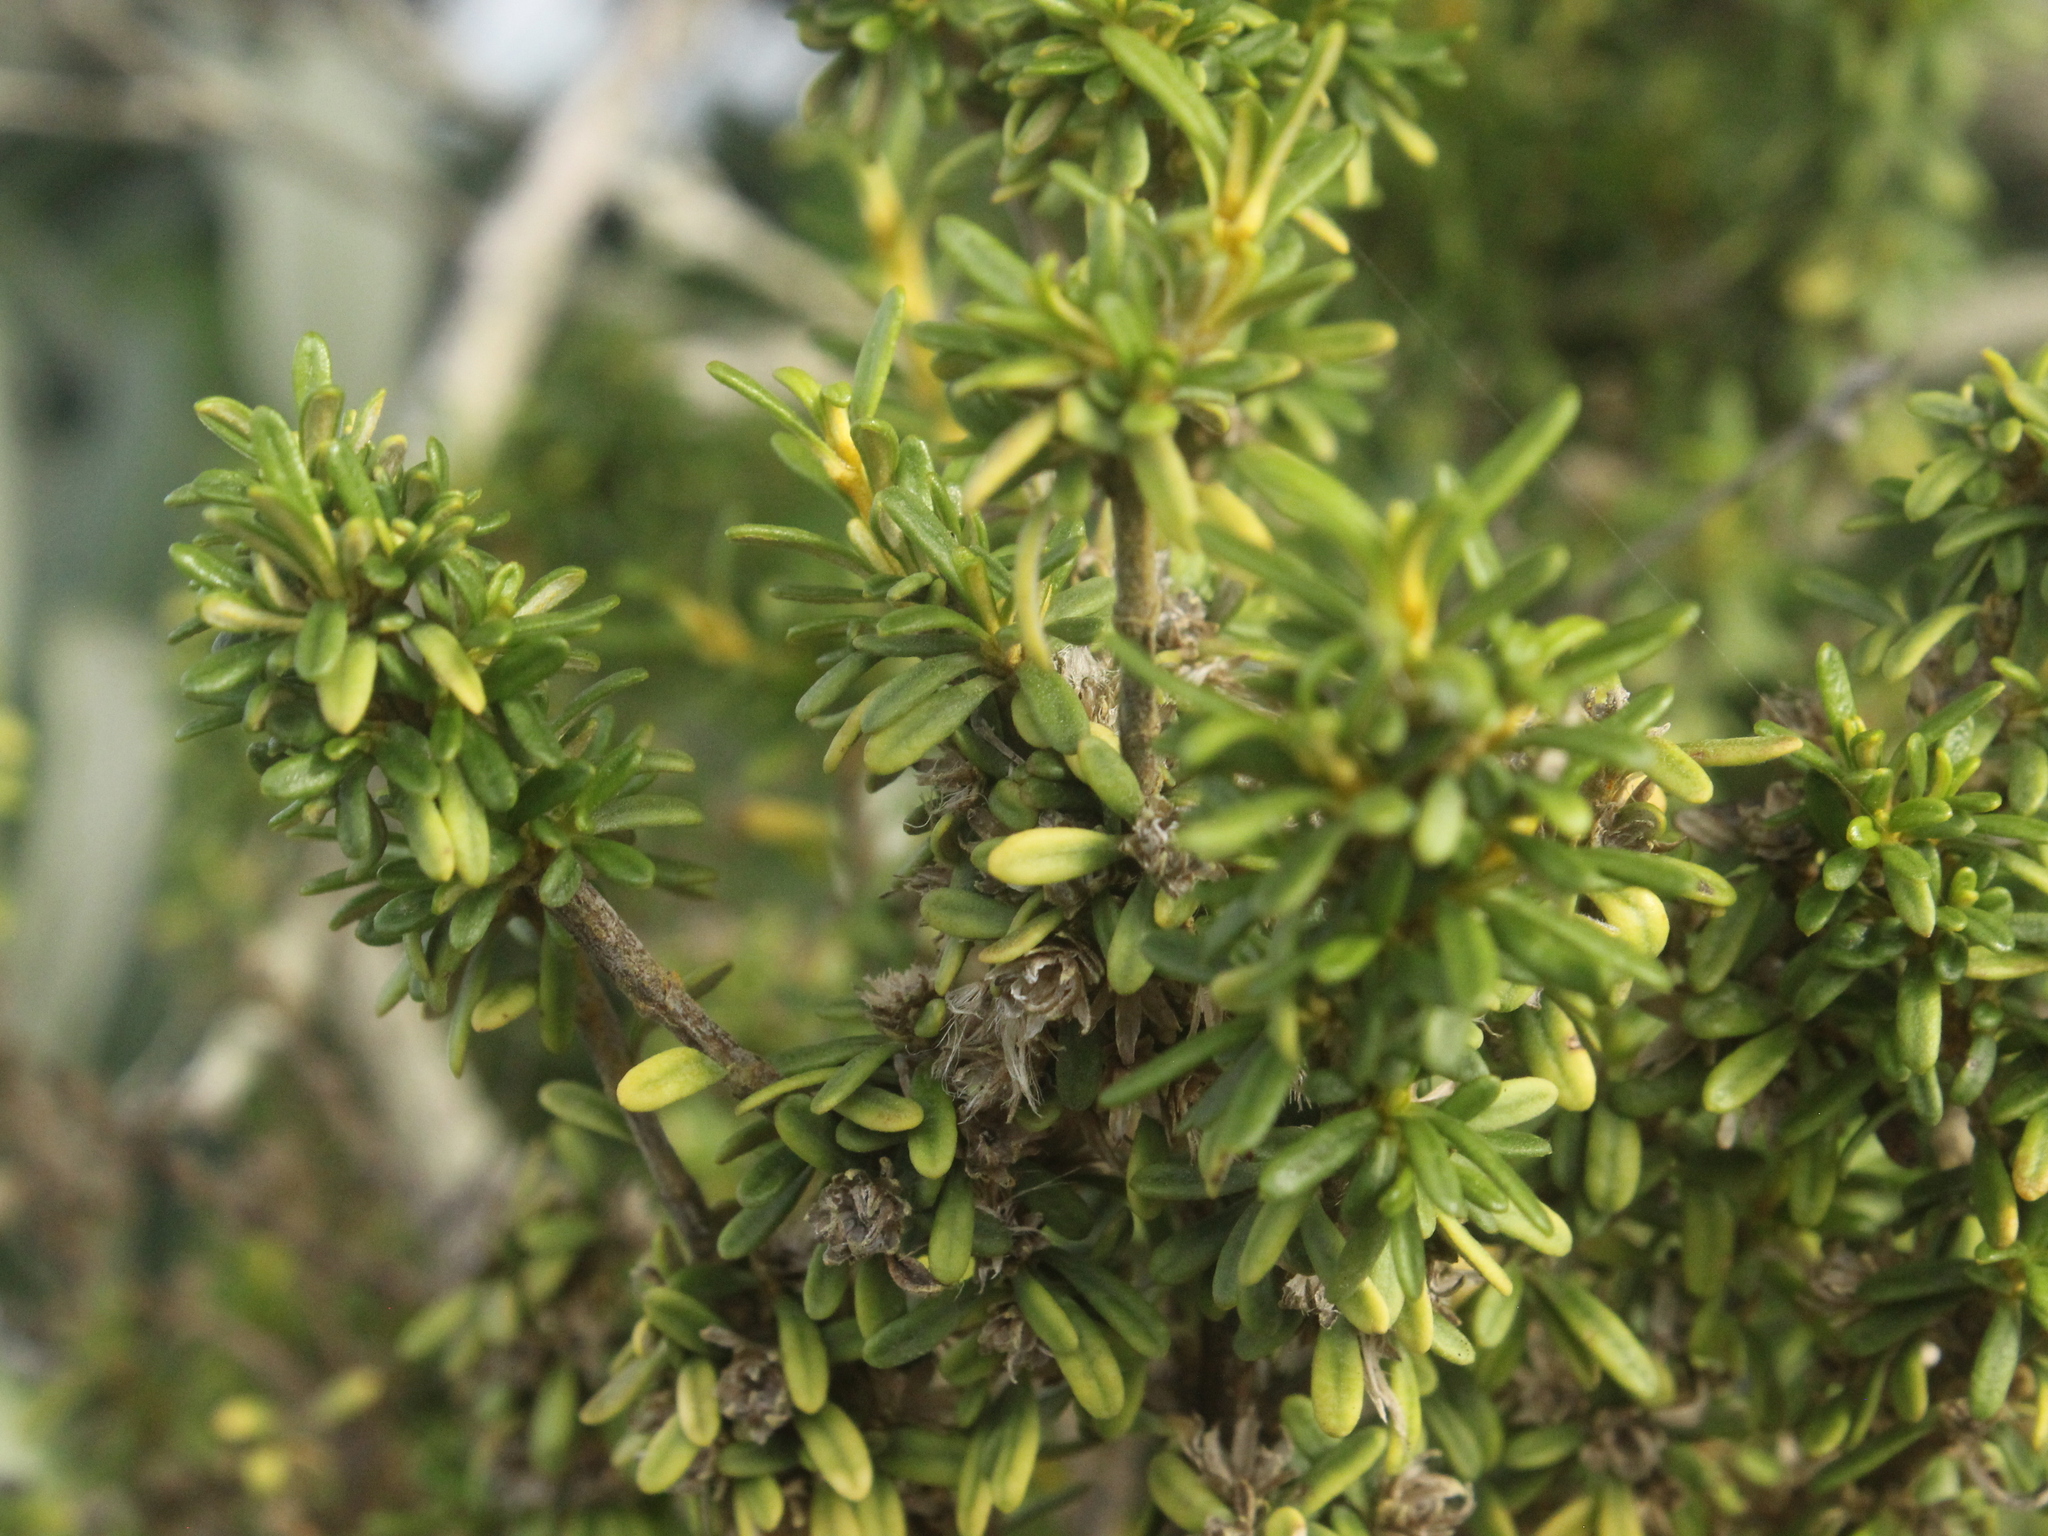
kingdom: Plantae
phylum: Tracheophyta
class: Magnoliopsida
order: Asterales
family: Asteraceae
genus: Olearia
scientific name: Olearia solandri
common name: Coastal daisybush
